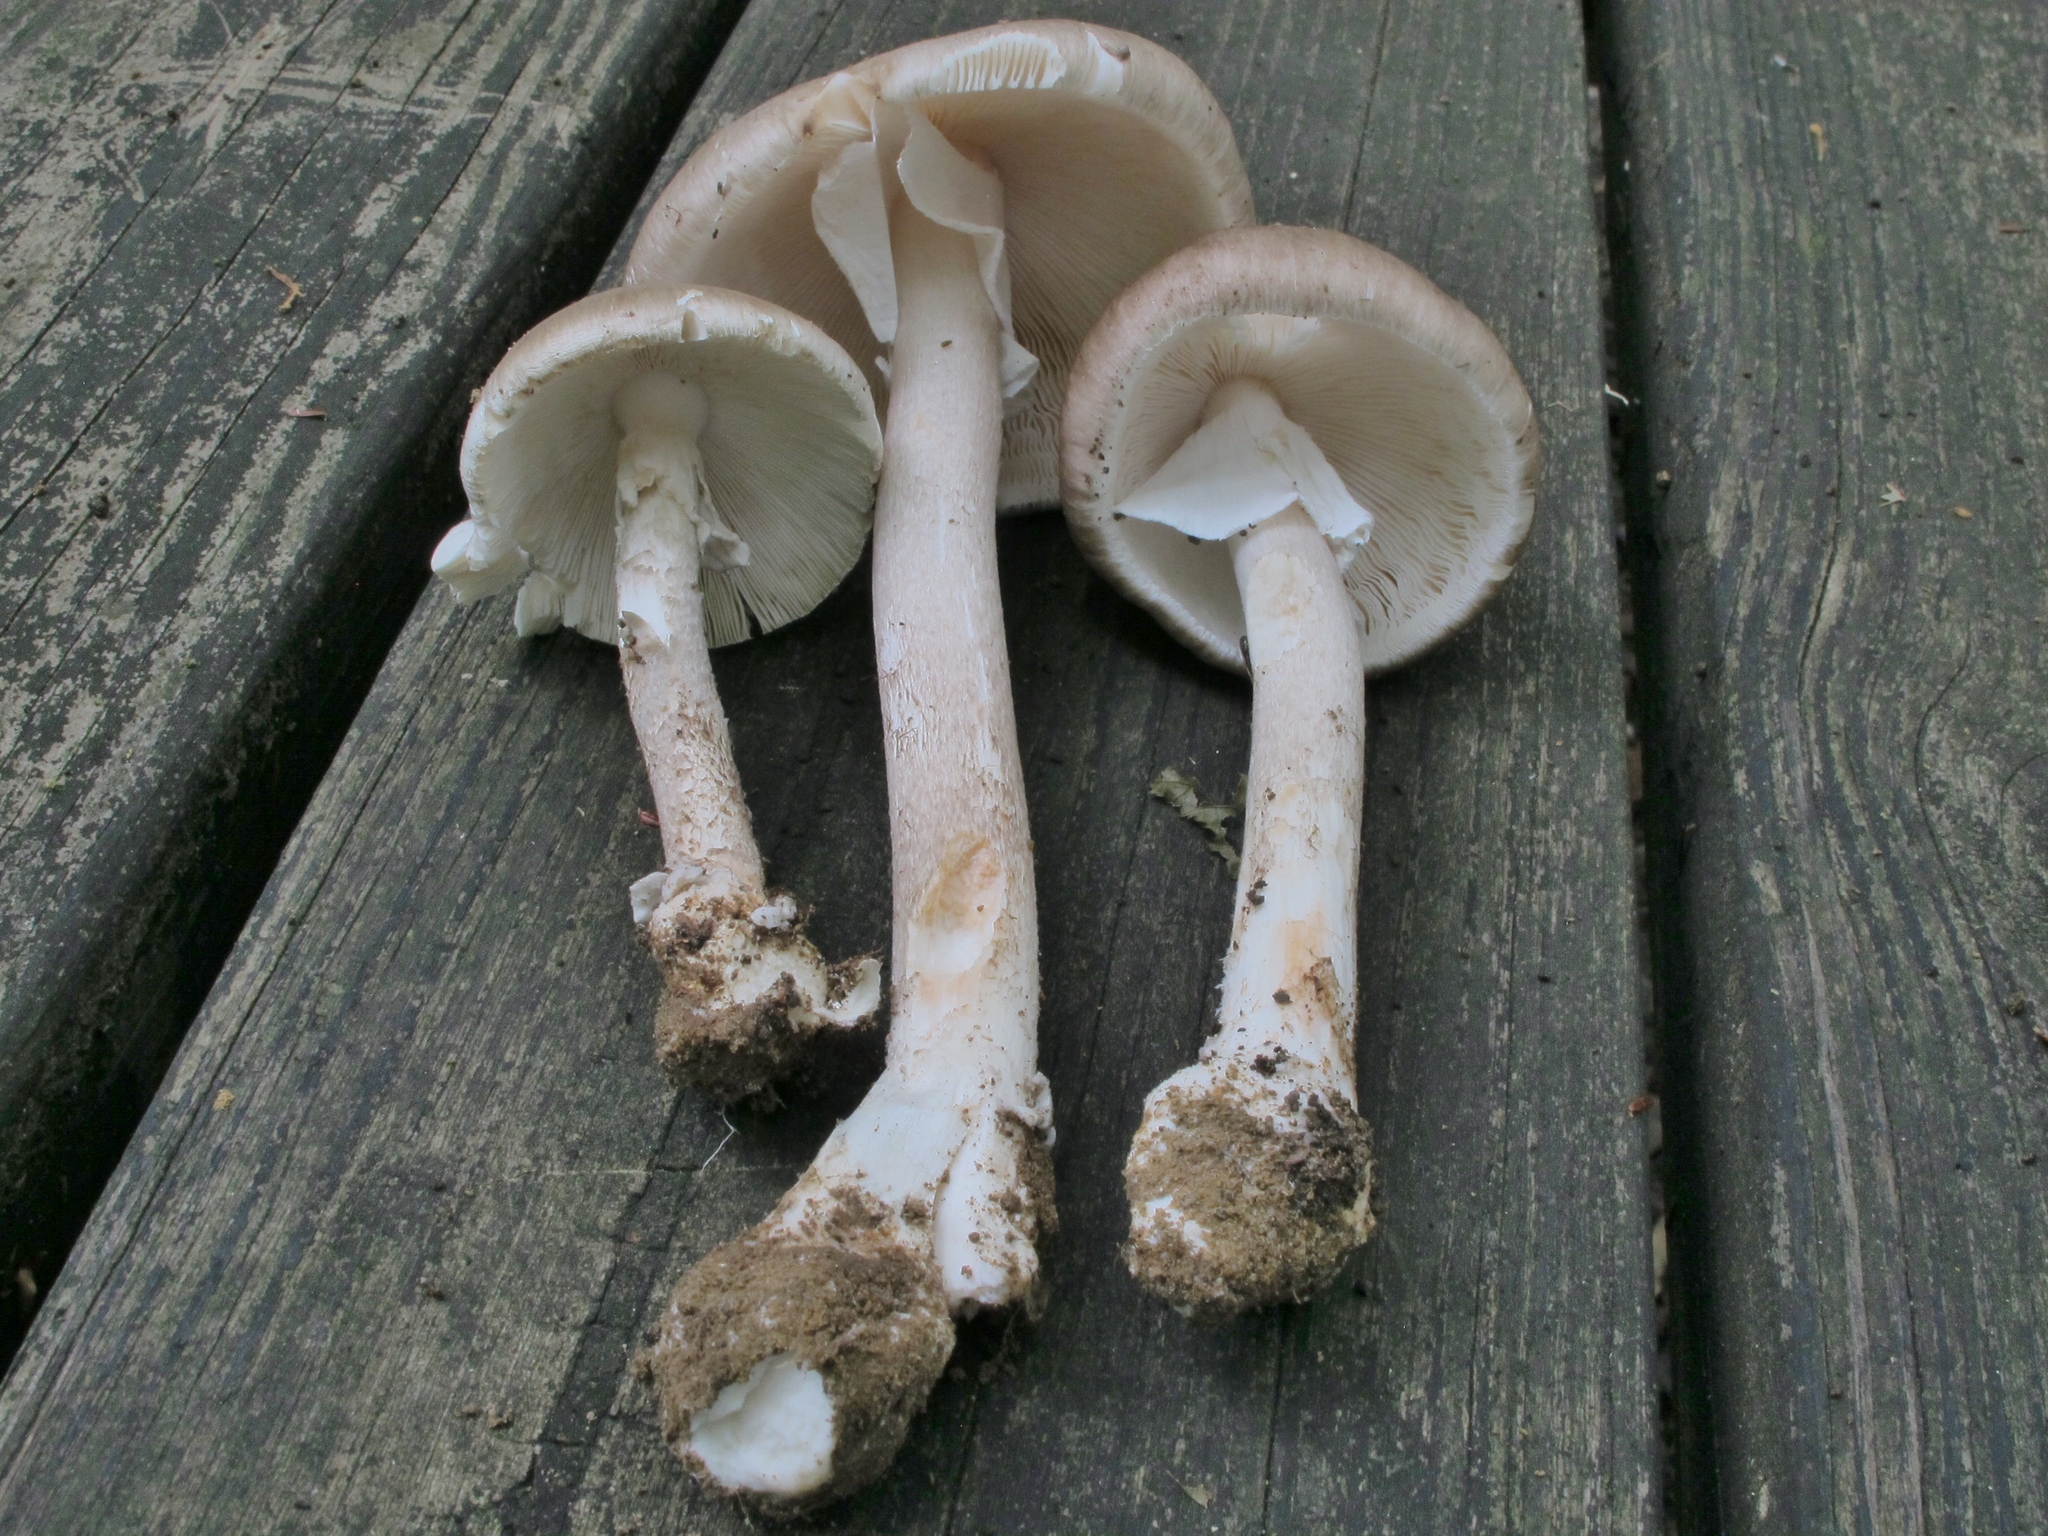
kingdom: Fungi
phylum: Basidiomycota
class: Agaricomycetes
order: Agaricales
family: Amanitaceae
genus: Amanita
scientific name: Amanita submaculata
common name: Ball gown amanita
